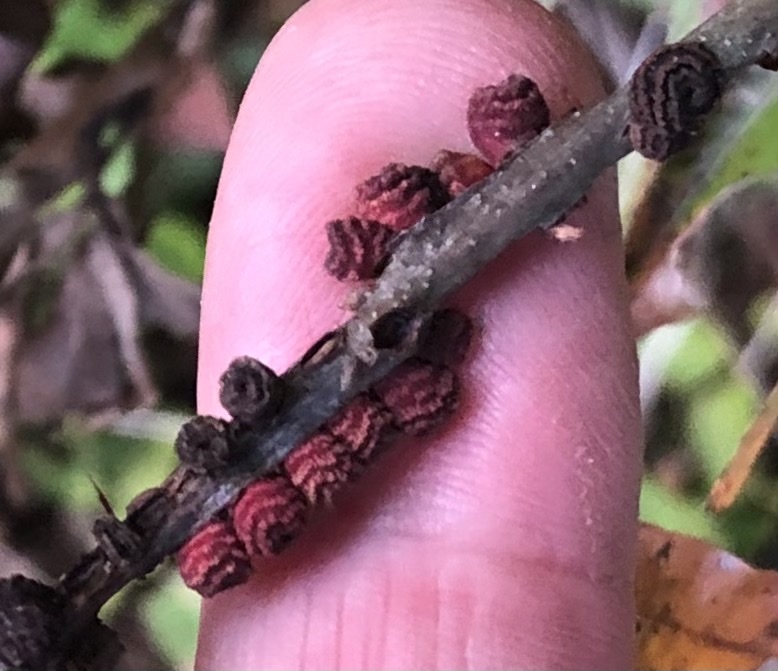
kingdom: Animalia
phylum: Arthropoda
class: Insecta
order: Hymenoptera
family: Cynipidae
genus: Kokkocynips
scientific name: Kokkocynips difficilis
